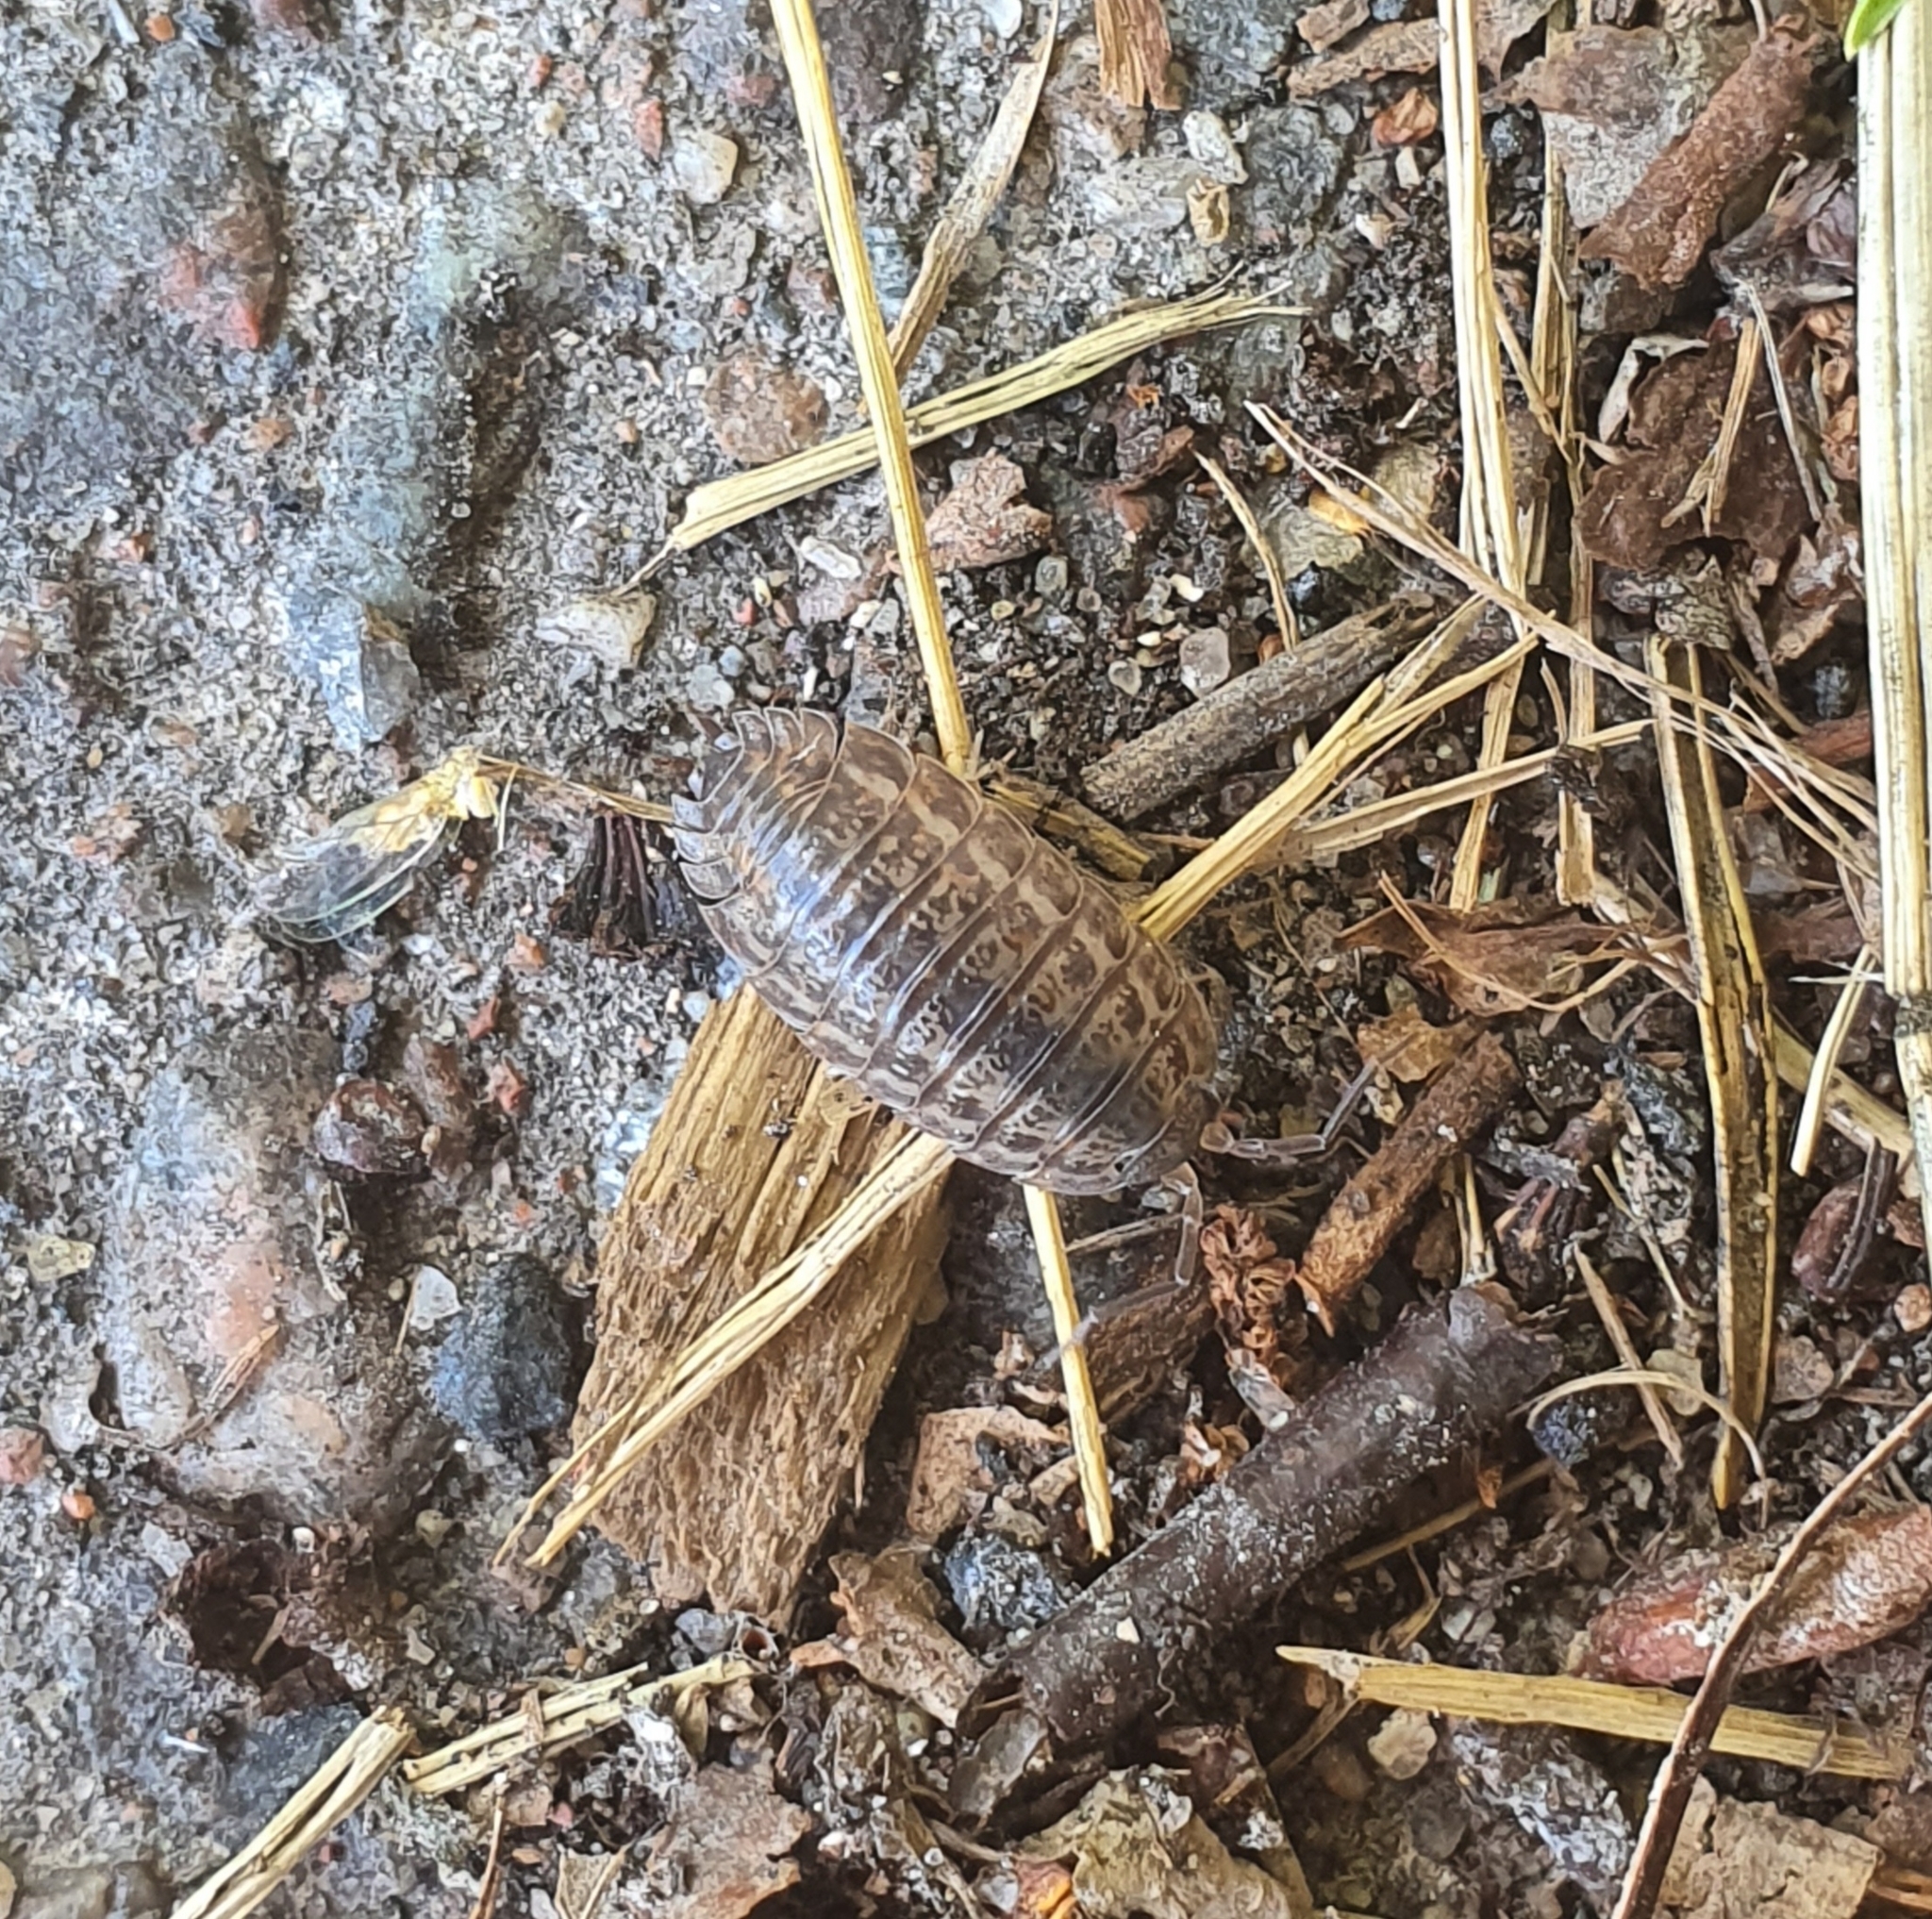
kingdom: Animalia
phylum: Arthropoda
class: Malacostraca
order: Isopoda
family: Trachelipodidae
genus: Trachelipus
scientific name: Trachelipus rathkii
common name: Isopod
